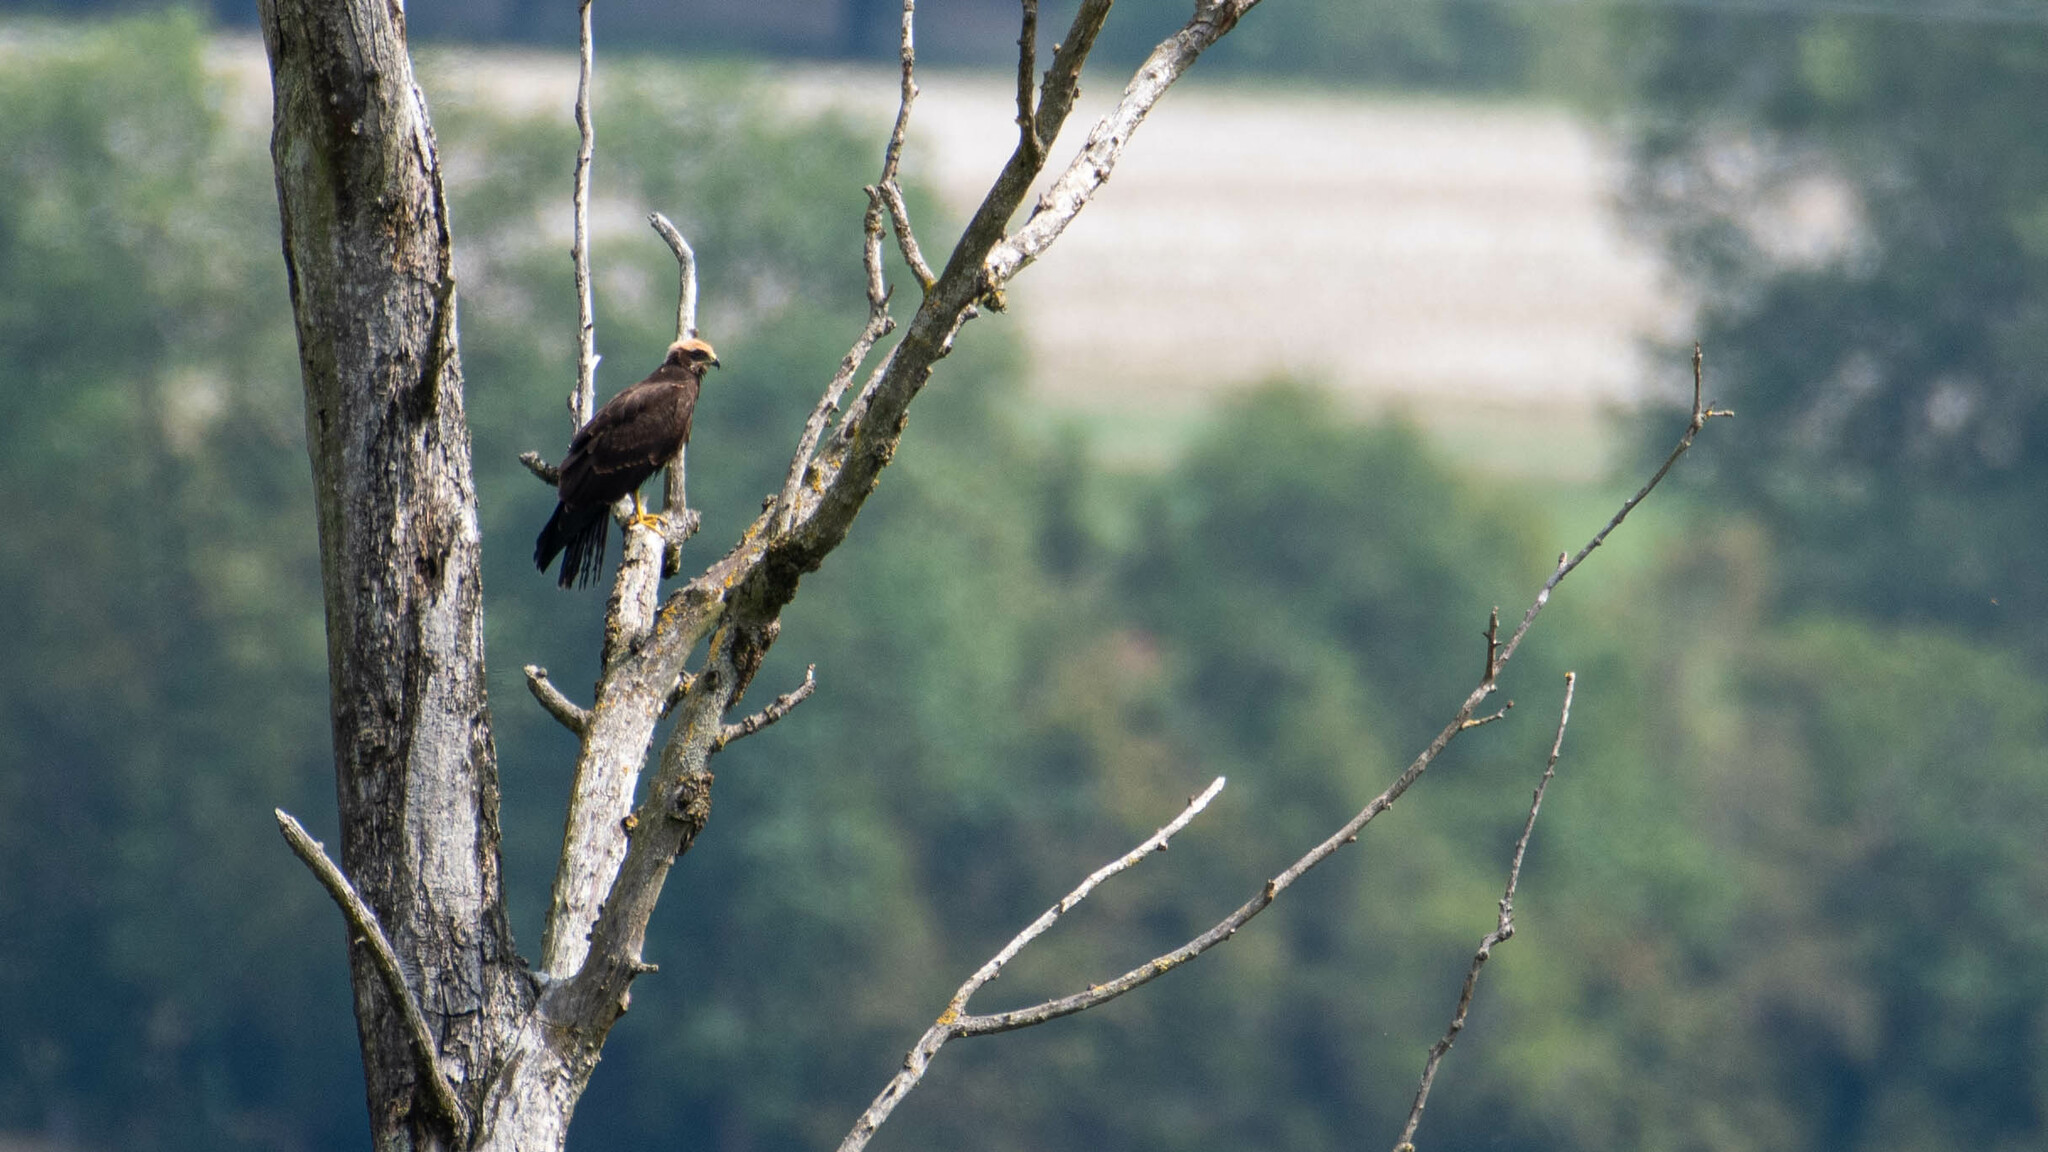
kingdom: Animalia
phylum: Chordata
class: Aves
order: Accipitriformes
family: Accipitridae
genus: Circus
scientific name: Circus aeruginosus
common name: Western marsh harrier
